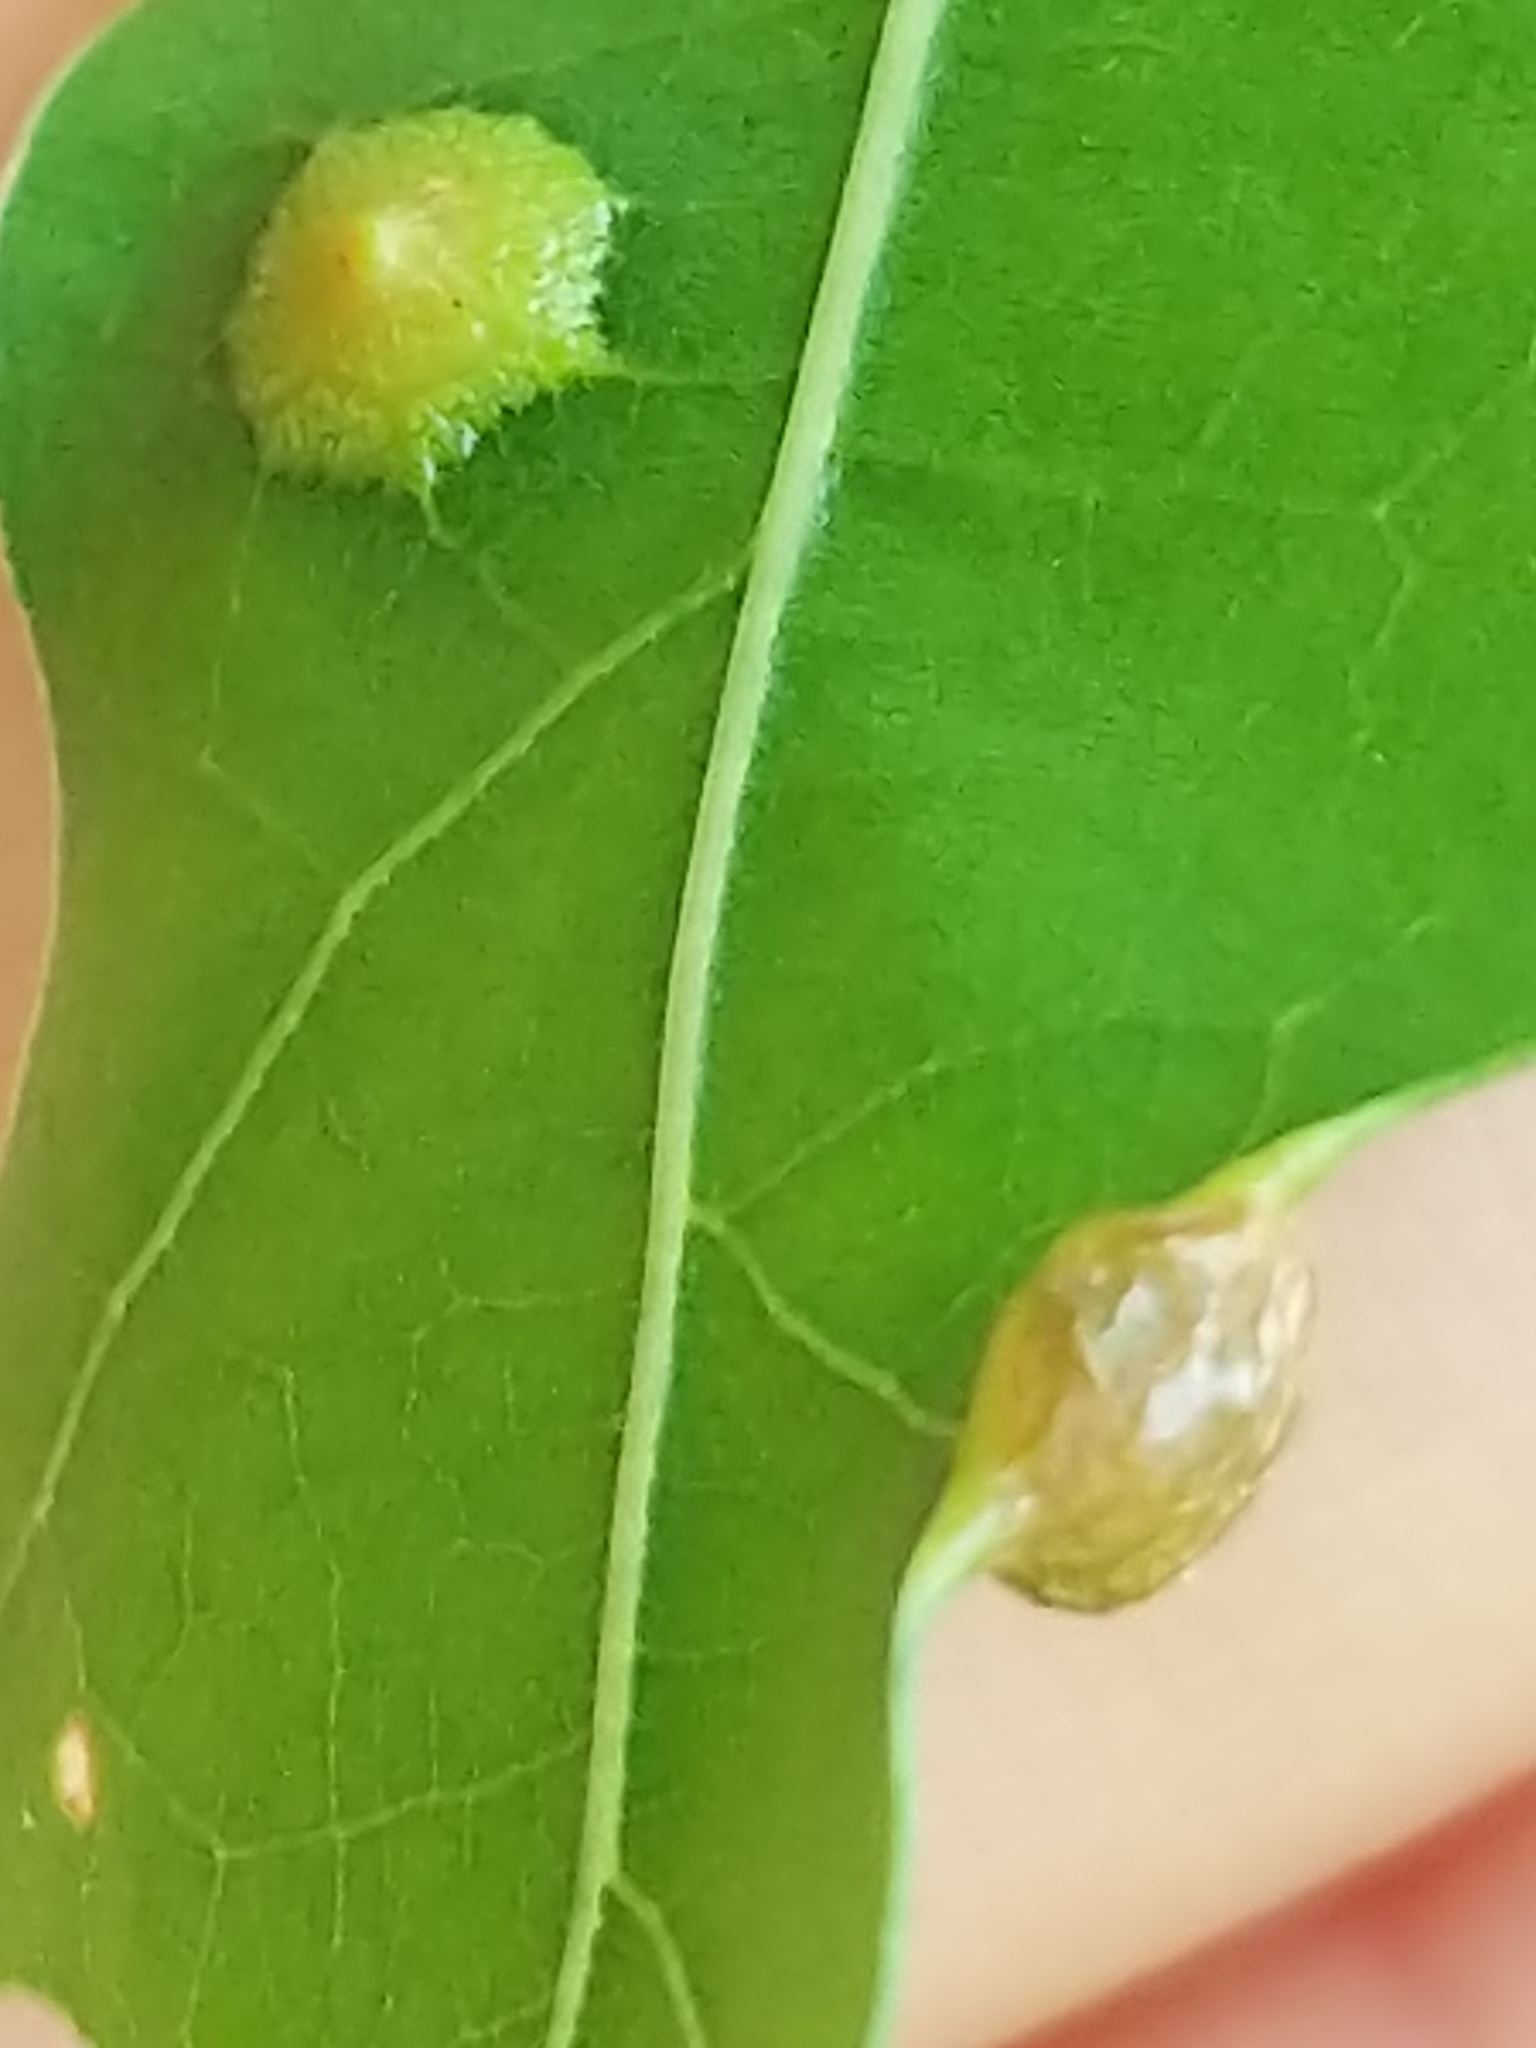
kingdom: Animalia
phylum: Arthropoda
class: Insecta
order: Diptera
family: Cecidomyiidae
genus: Polystepha
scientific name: Polystepha pilulae
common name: Oak leaf gall midge
